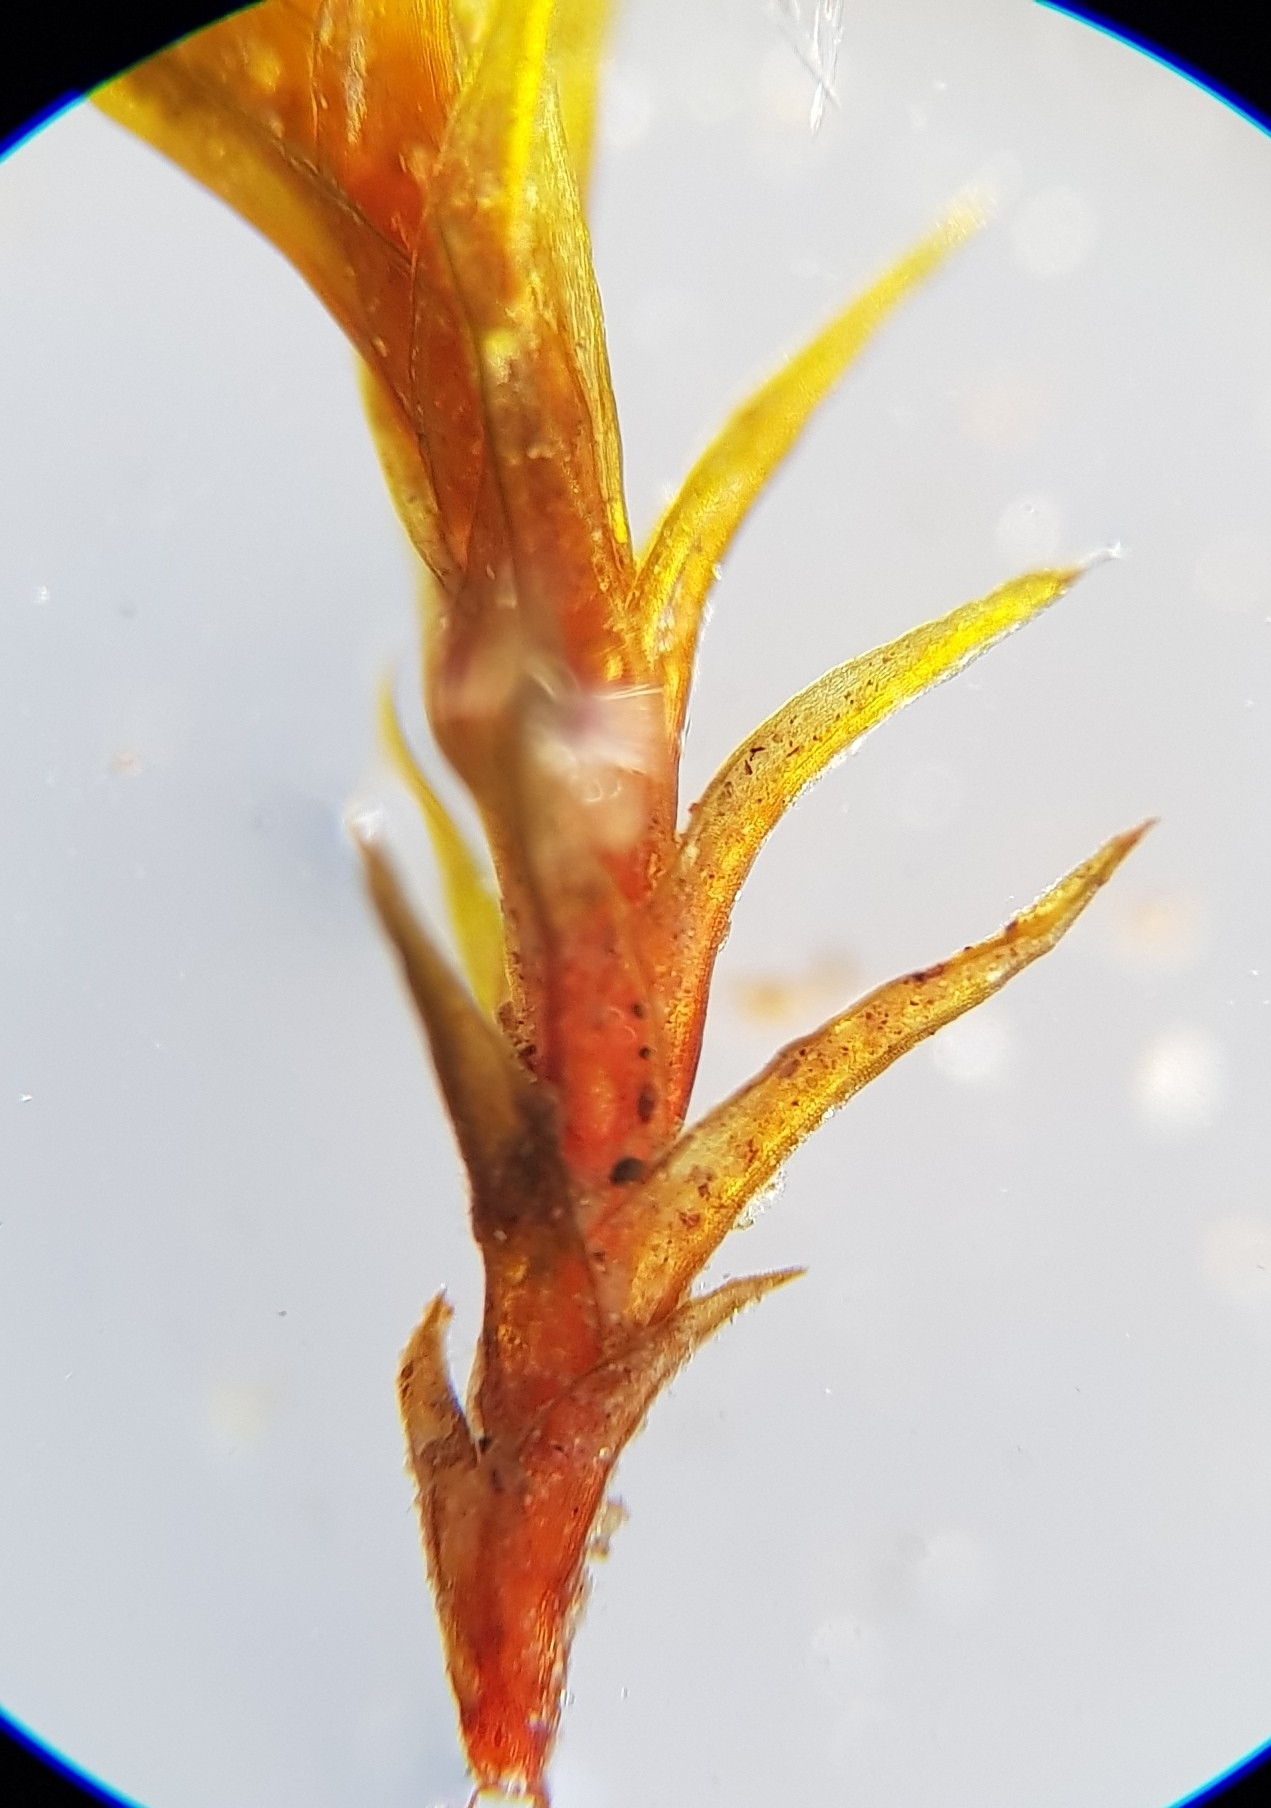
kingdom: Plantae
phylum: Bryophyta
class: Bryopsida
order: Grimmiales
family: Grimmiaceae
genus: Schistidium
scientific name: Schistidium crassipilum
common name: Thickpoint bloom moss
